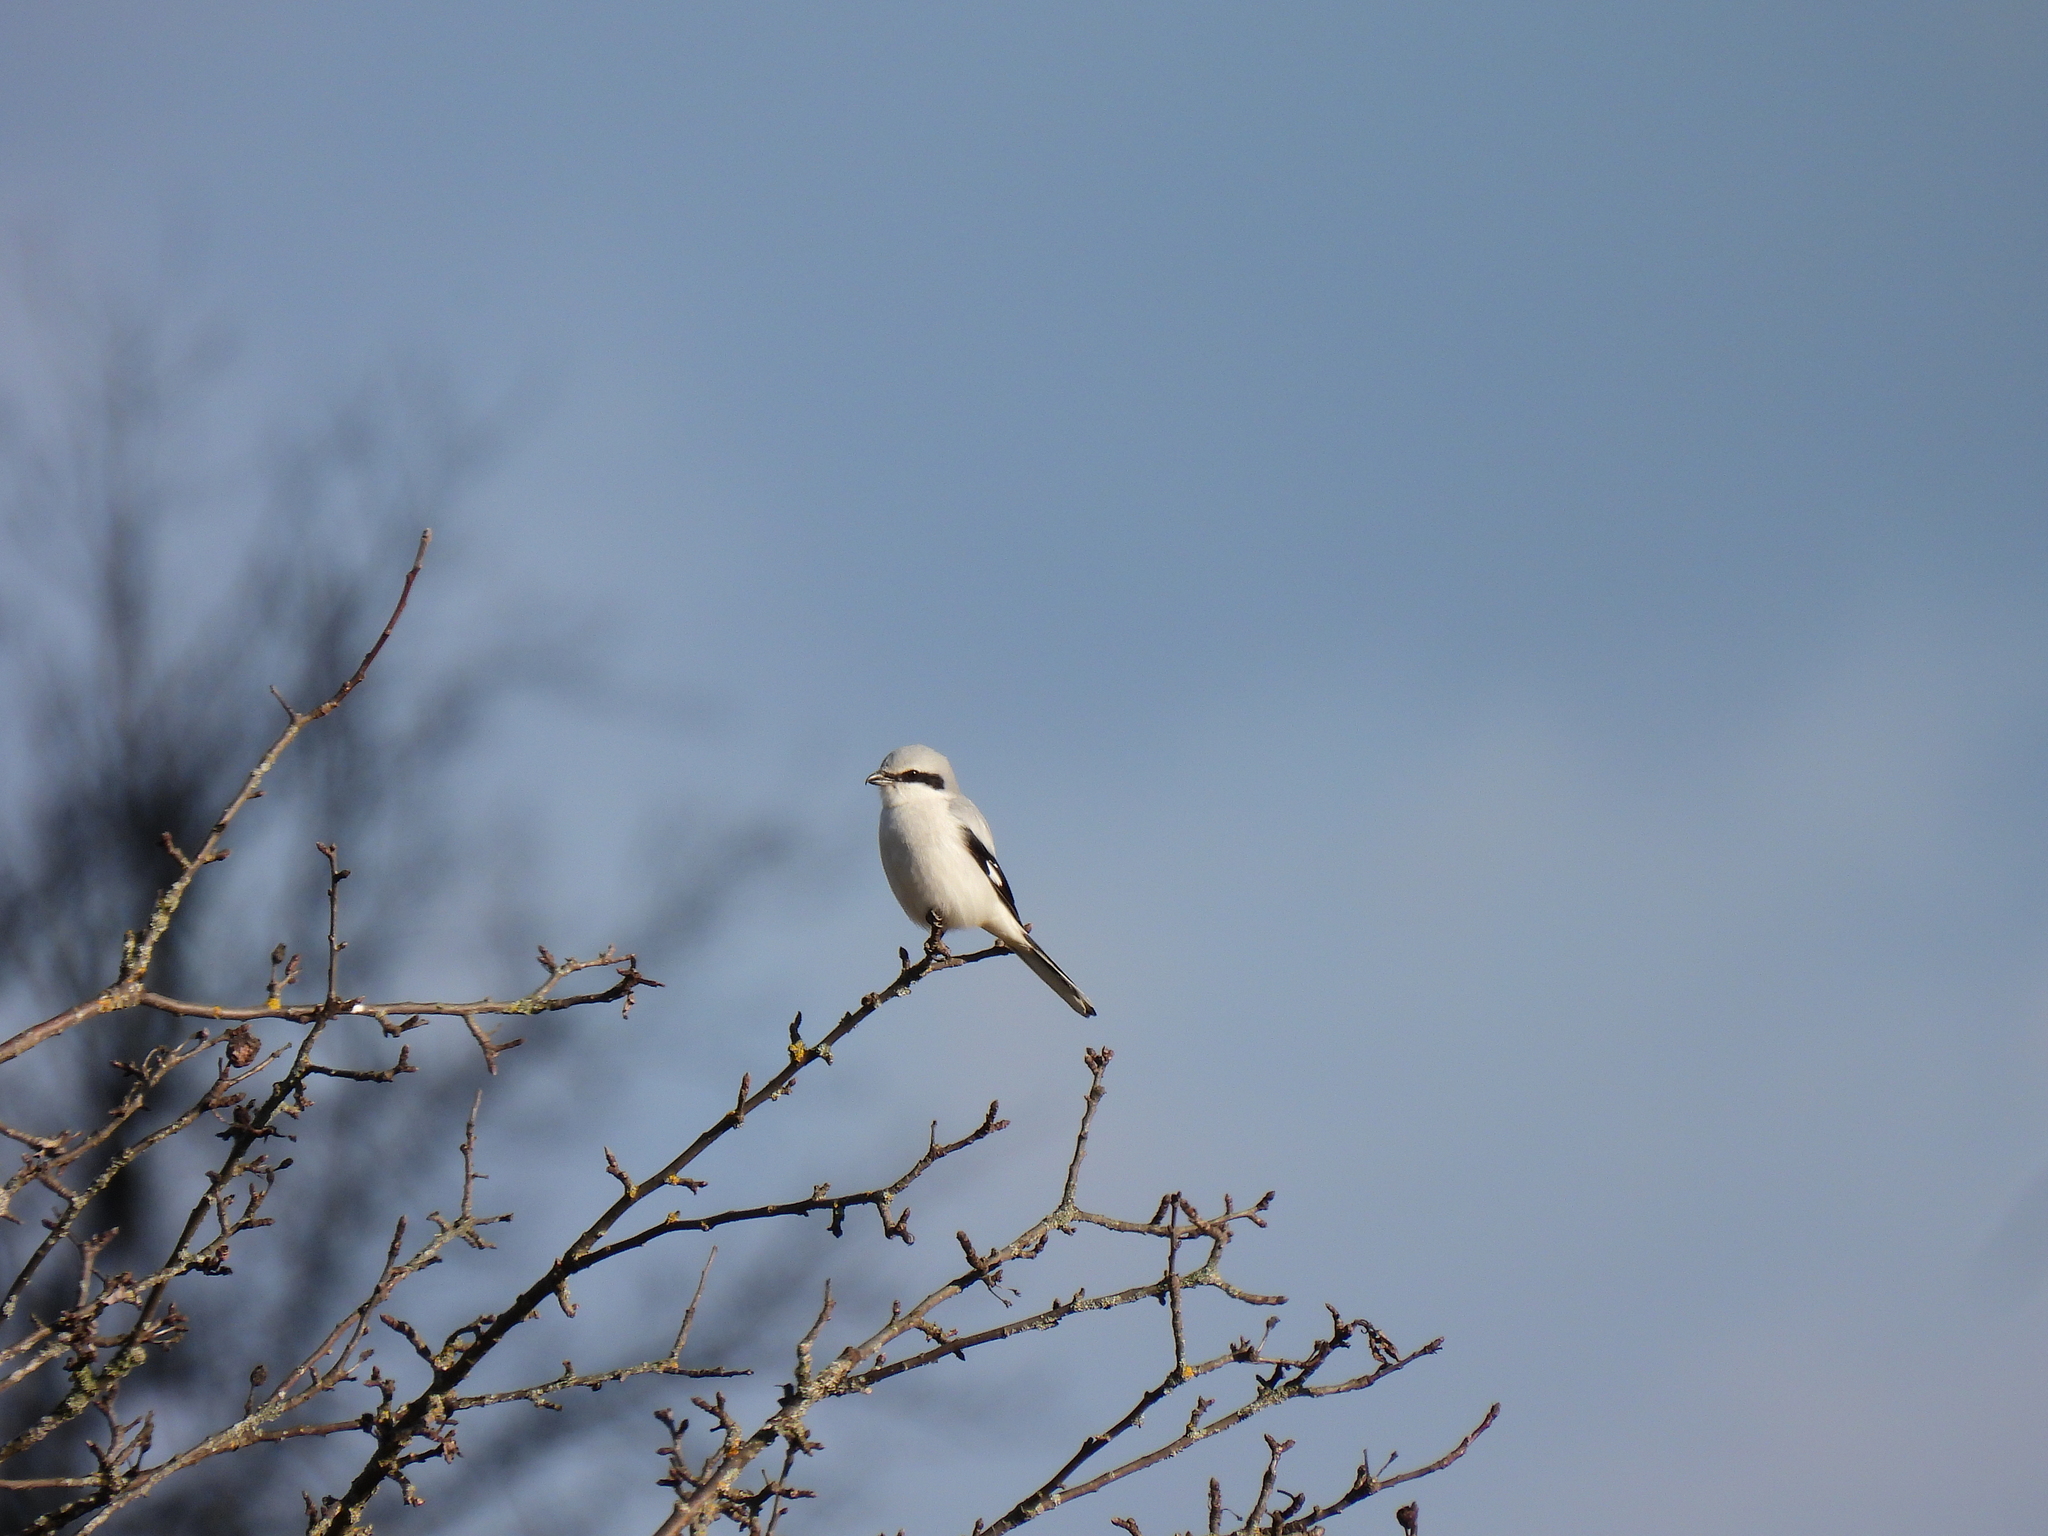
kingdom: Animalia
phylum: Chordata
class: Aves
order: Passeriformes
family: Laniidae
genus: Lanius
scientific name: Lanius excubitor
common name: Great grey shrike
